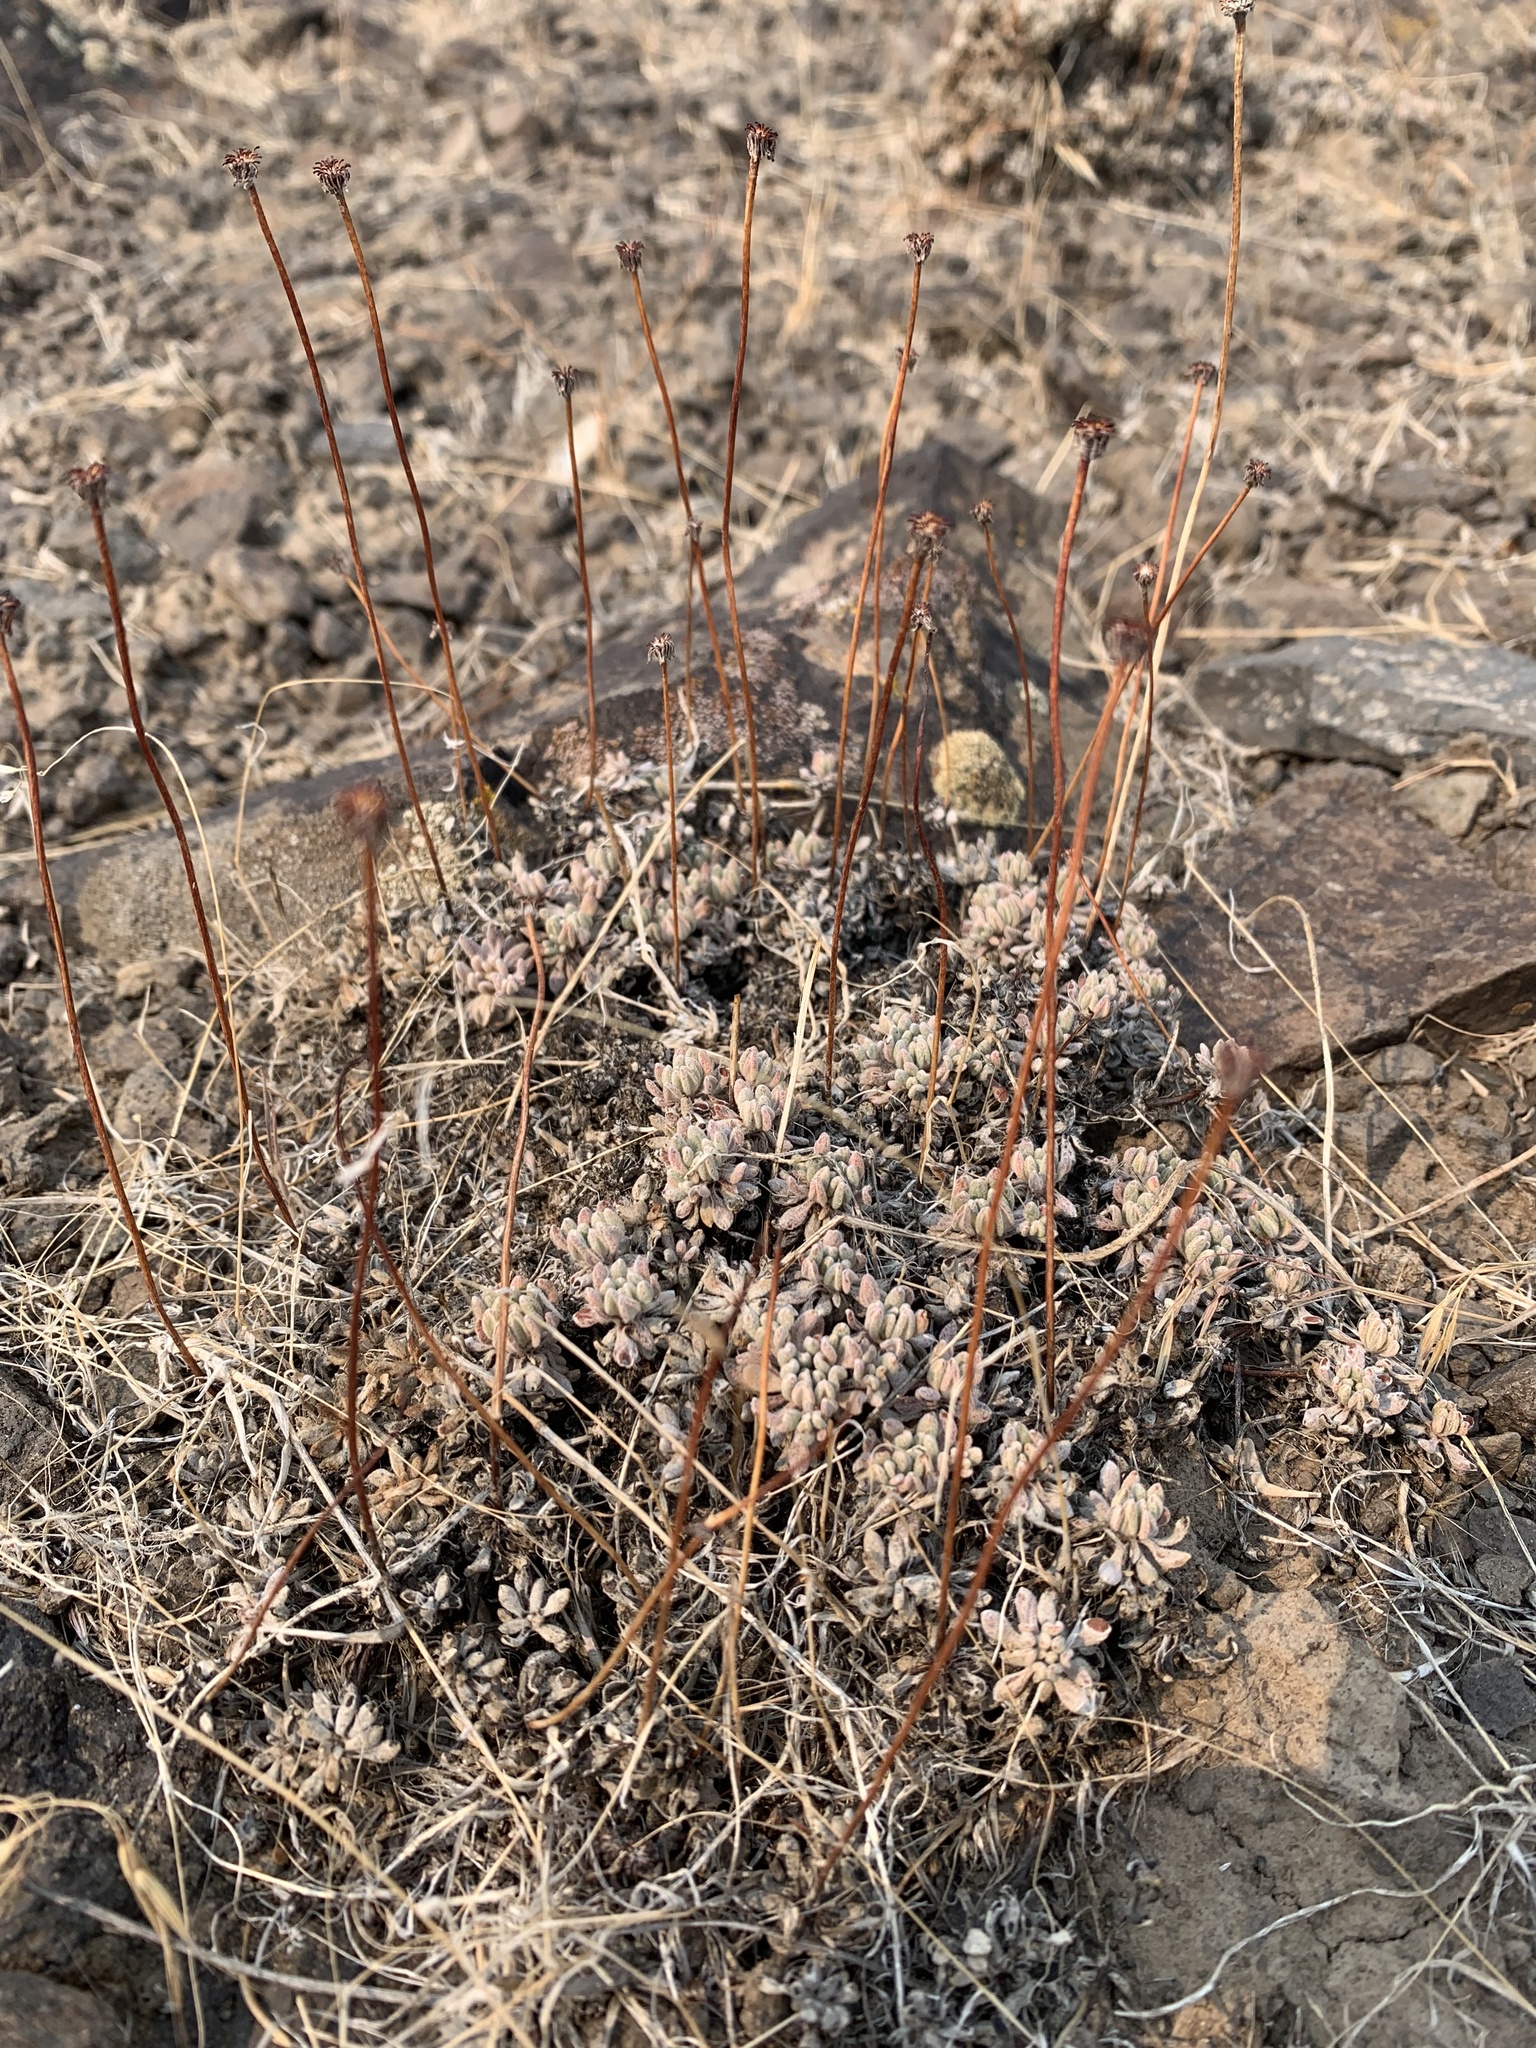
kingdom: Plantae
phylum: Tracheophyta
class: Magnoliopsida
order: Caryophyllales
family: Polygonaceae
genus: Eriogonum
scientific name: Eriogonum caespitosum
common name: Matted wild buckwheat
